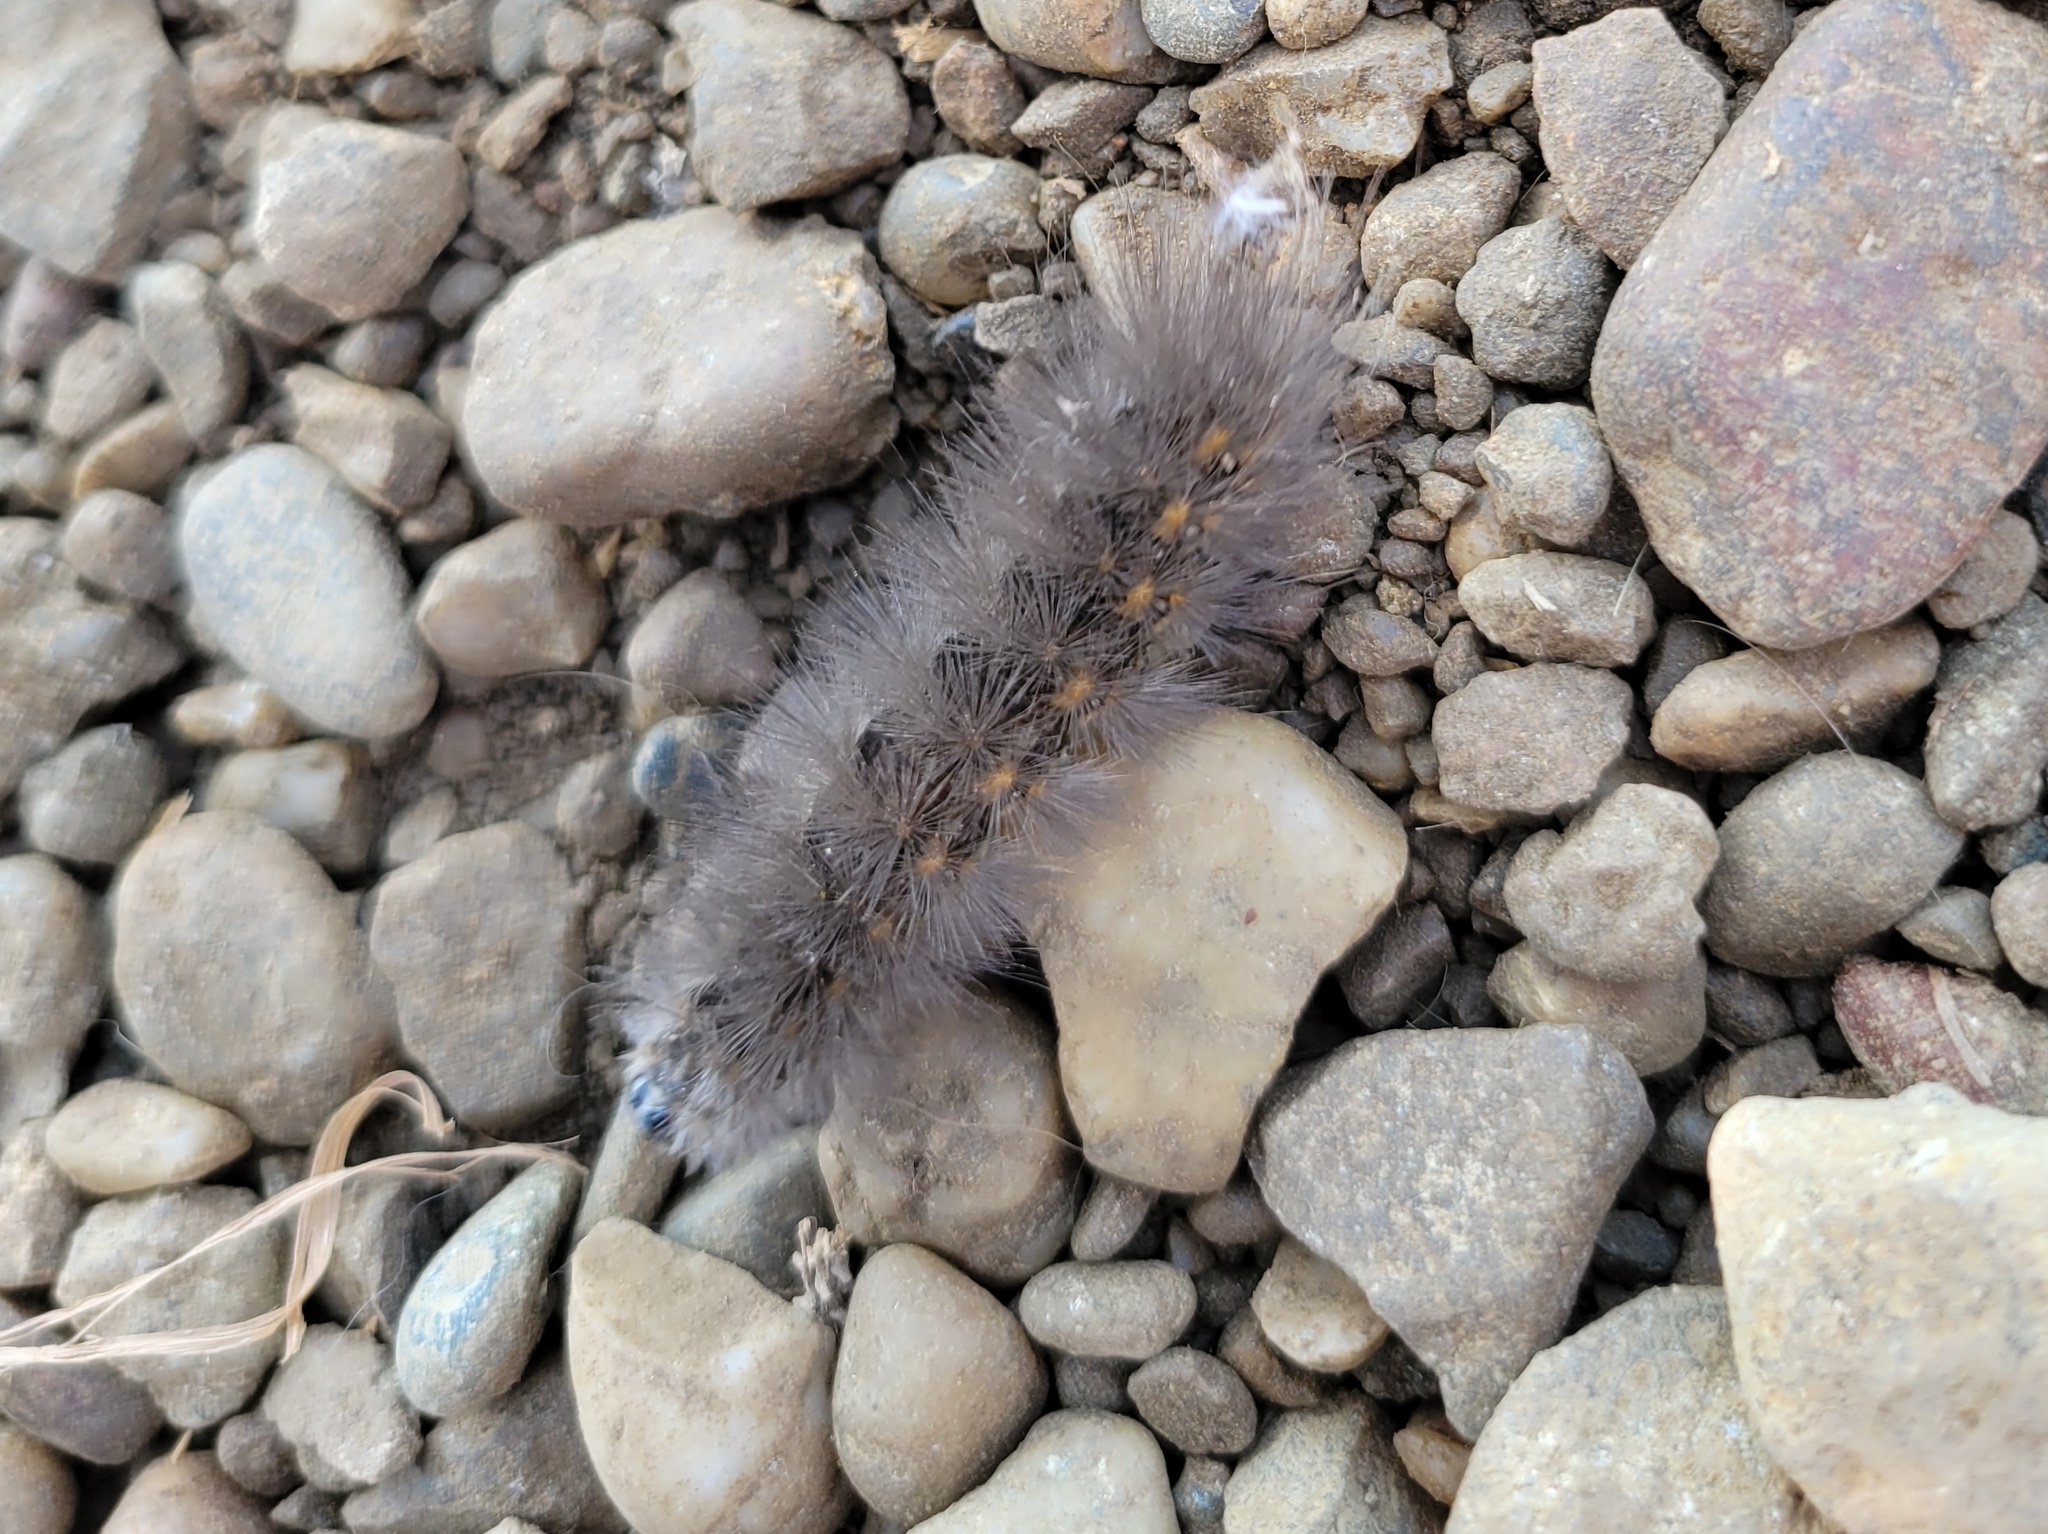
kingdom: Animalia
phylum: Arthropoda
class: Insecta
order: Lepidoptera
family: Erebidae
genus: Estigmene
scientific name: Estigmene acrea
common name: Salt marsh moth
